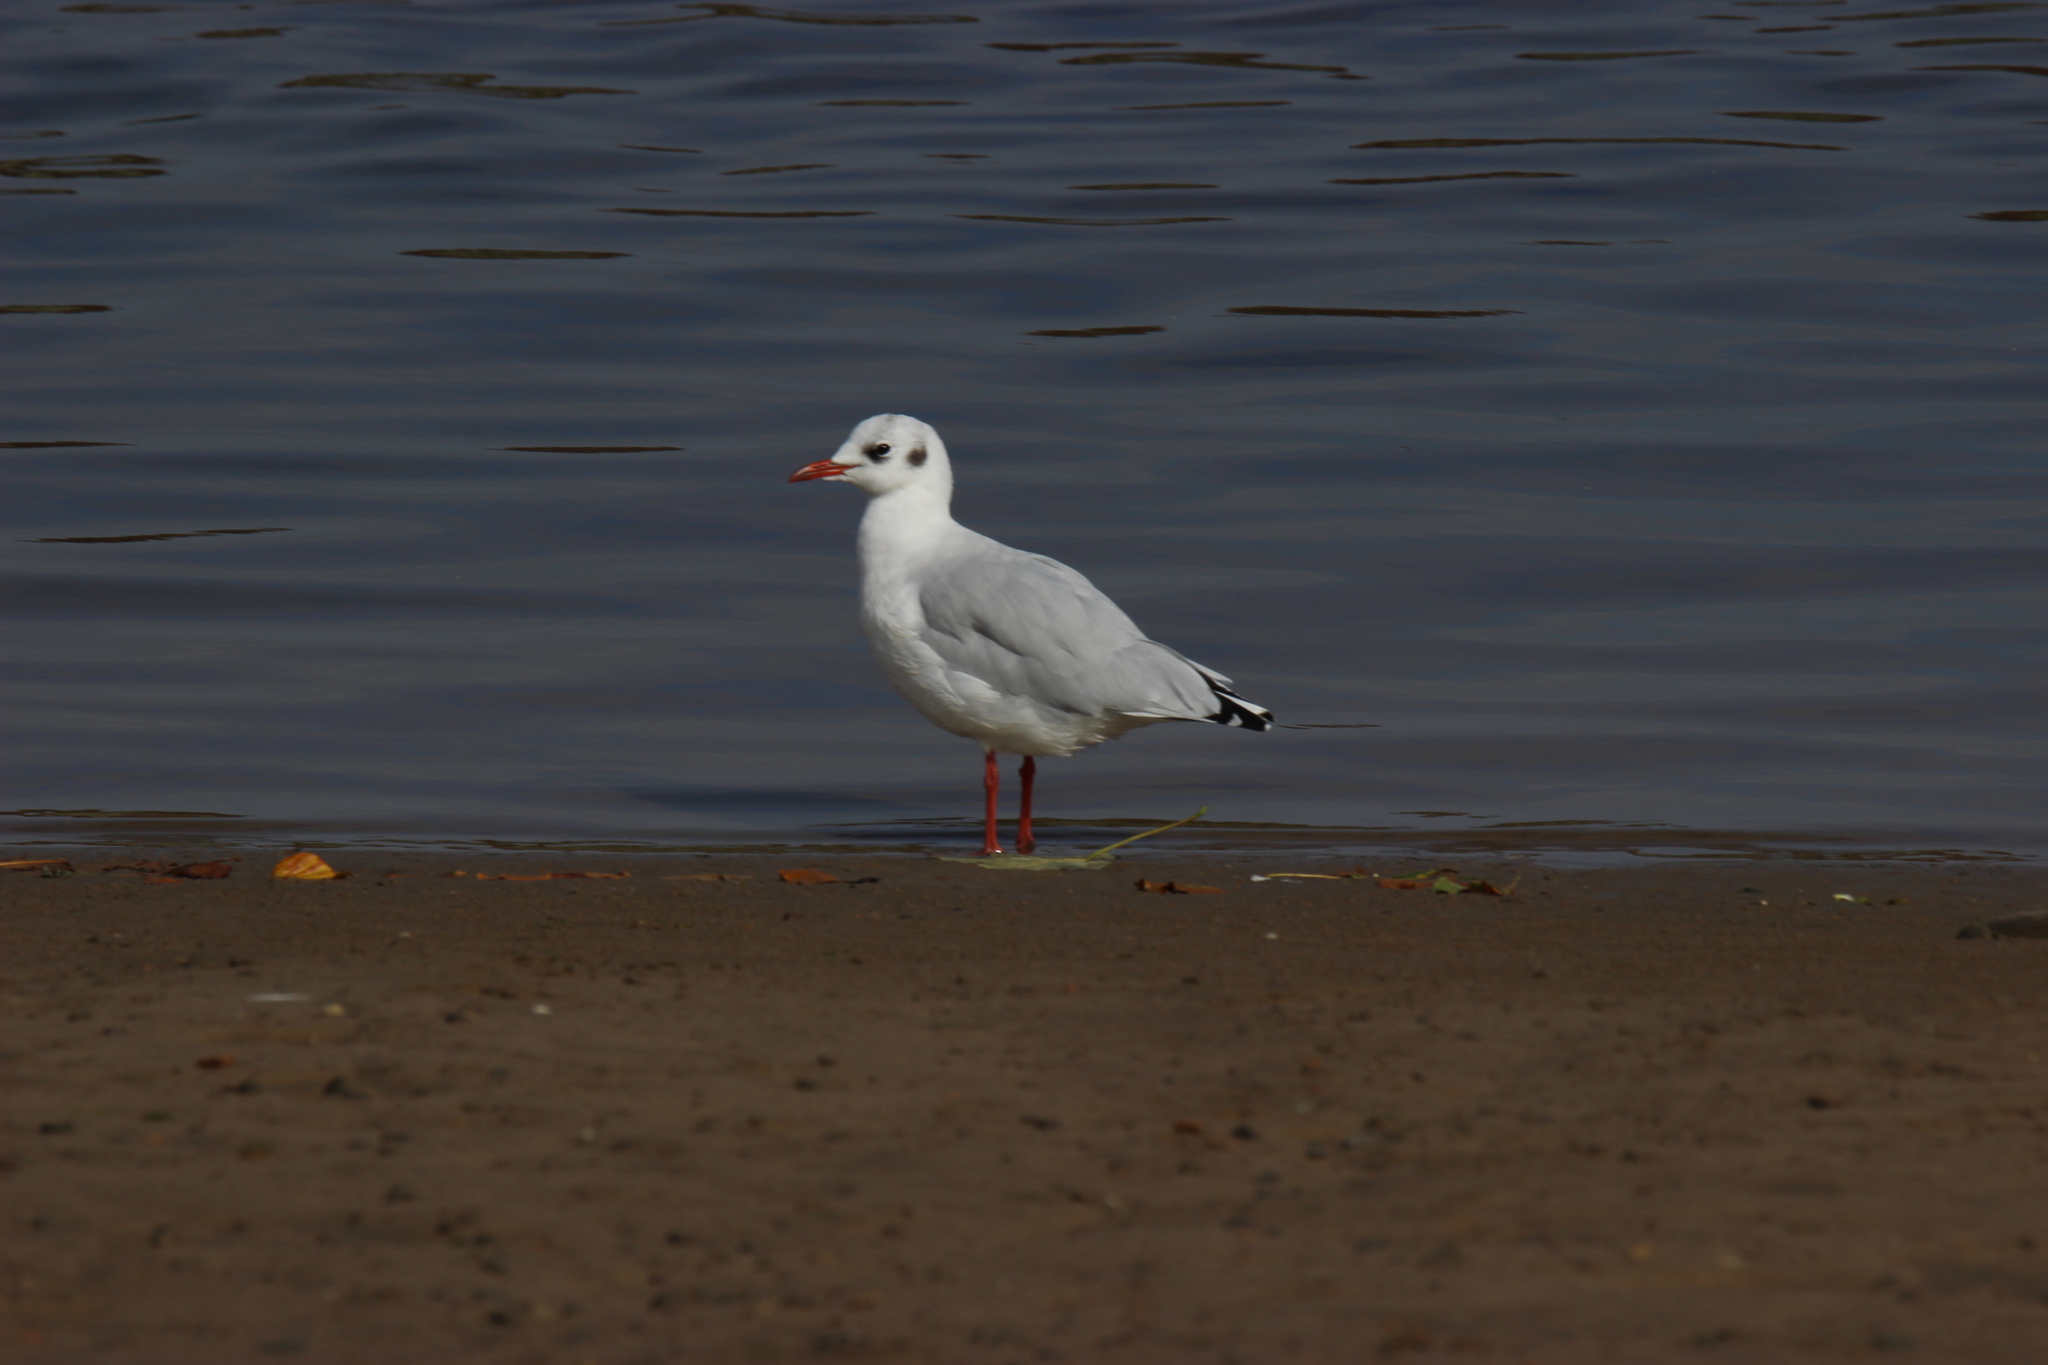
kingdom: Animalia
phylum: Chordata
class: Aves
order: Charadriiformes
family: Laridae
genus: Chroicocephalus
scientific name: Chroicocephalus ridibundus
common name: Black-headed gull
